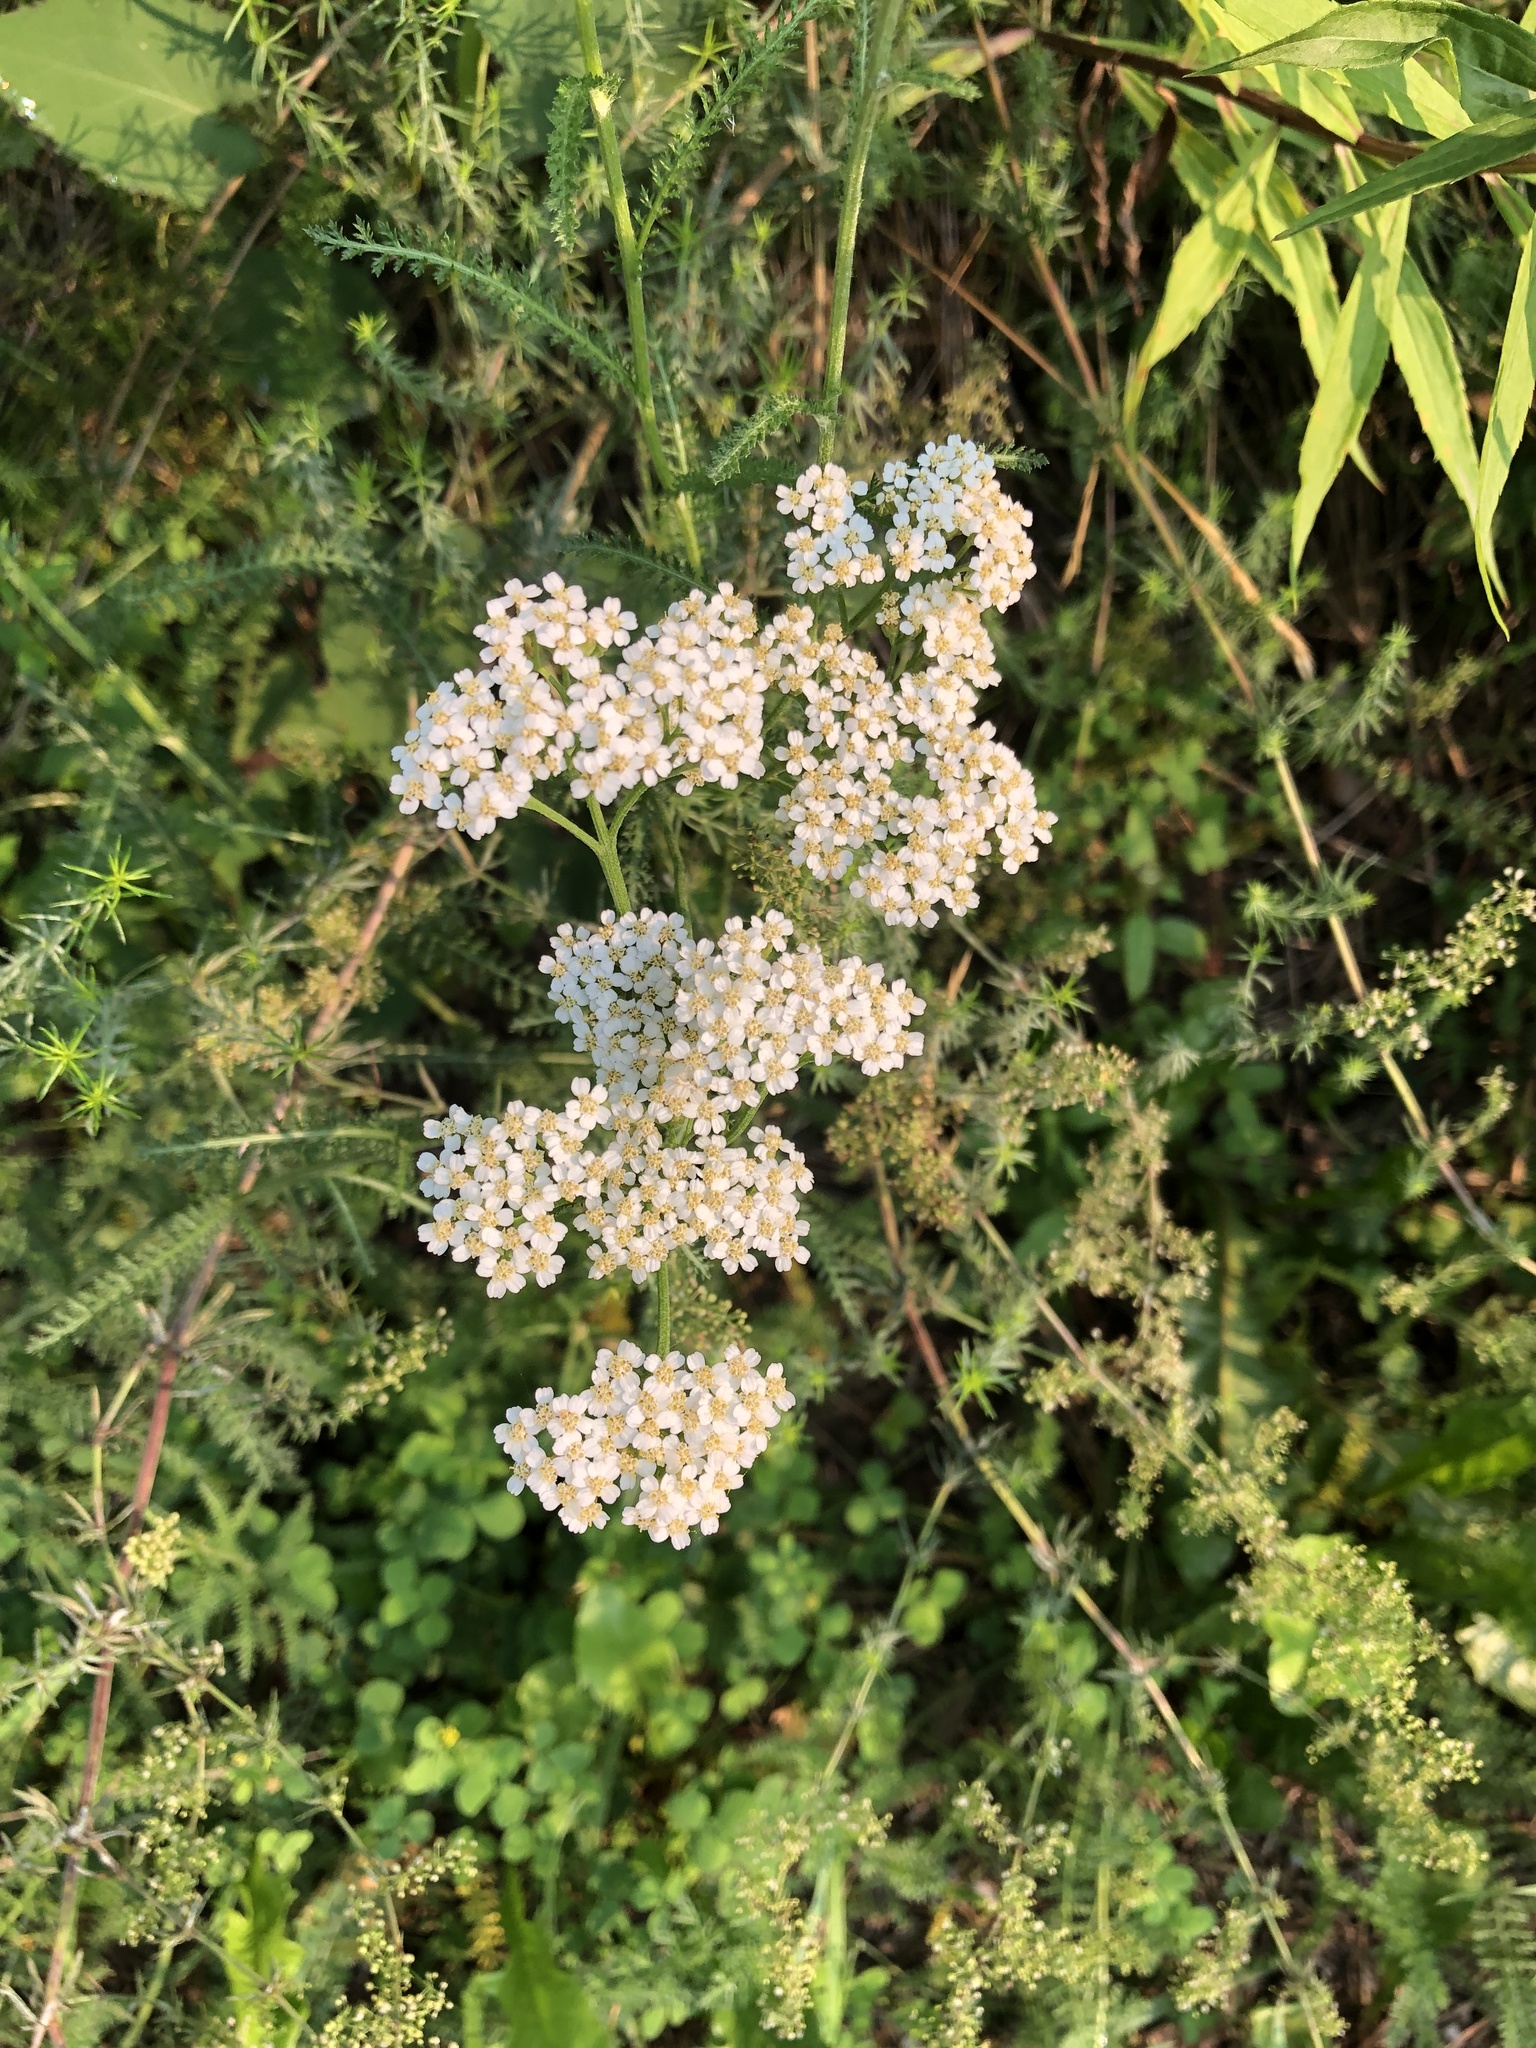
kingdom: Plantae
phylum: Tracheophyta
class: Magnoliopsida
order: Asterales
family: Asteraceae
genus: Achillea
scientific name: Achillea millefolium
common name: Yarrow
